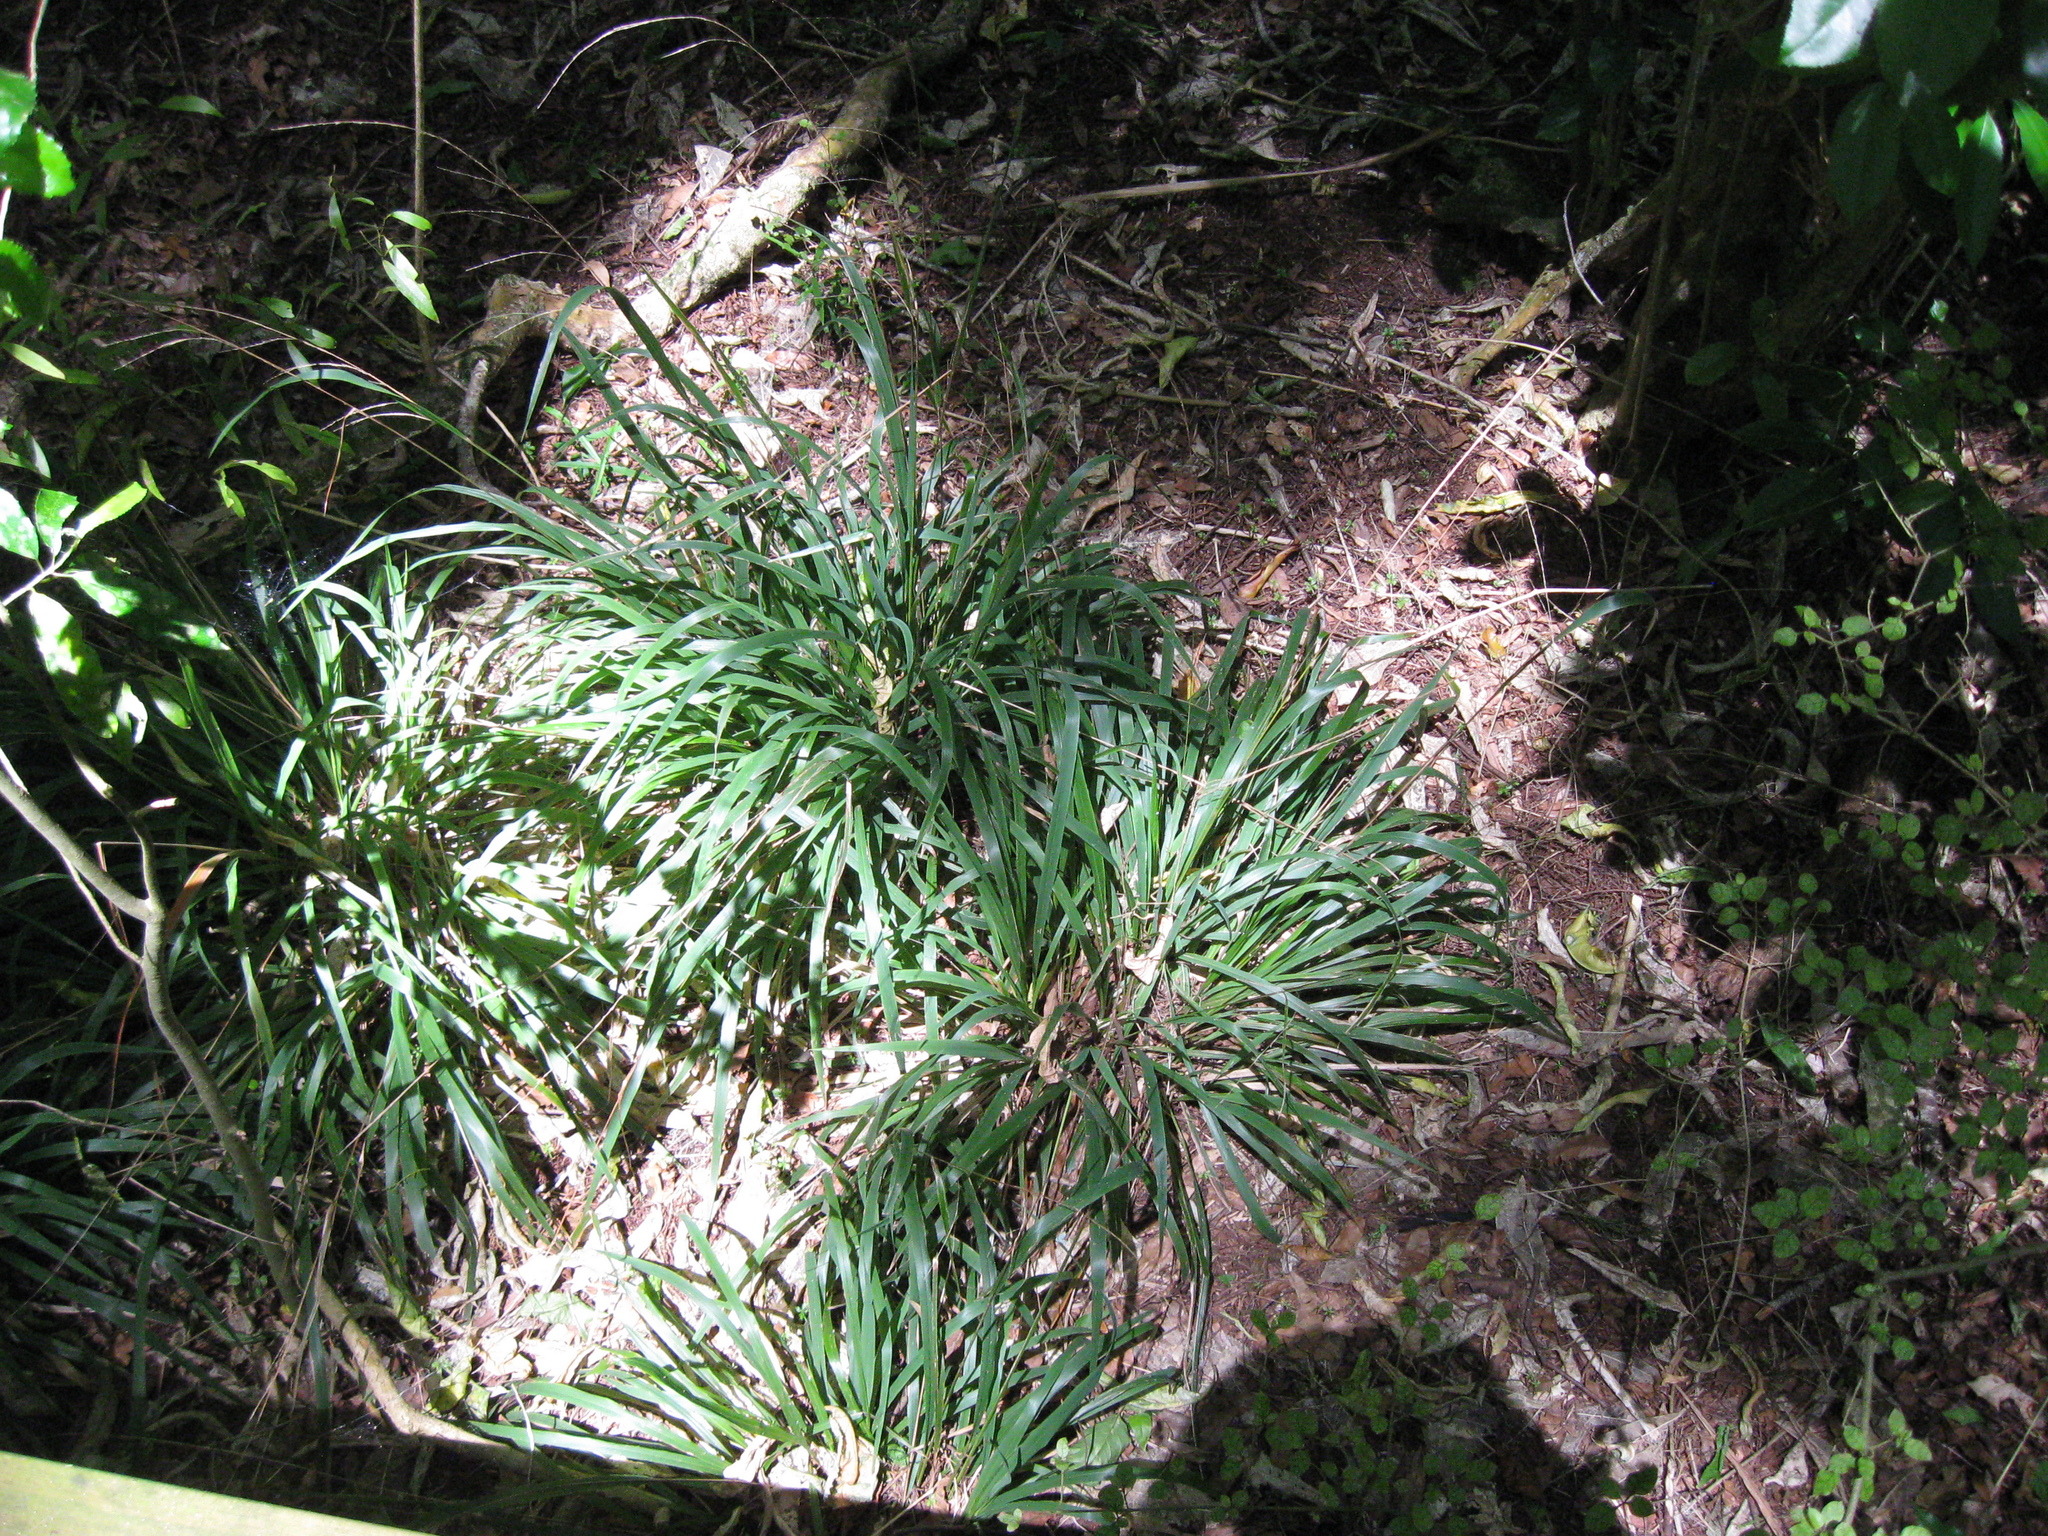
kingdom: Plantae
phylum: Tracheophyta
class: Liliopsida
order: Poales
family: Poaceae
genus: Ehrharta
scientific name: Ehrharta diplax
